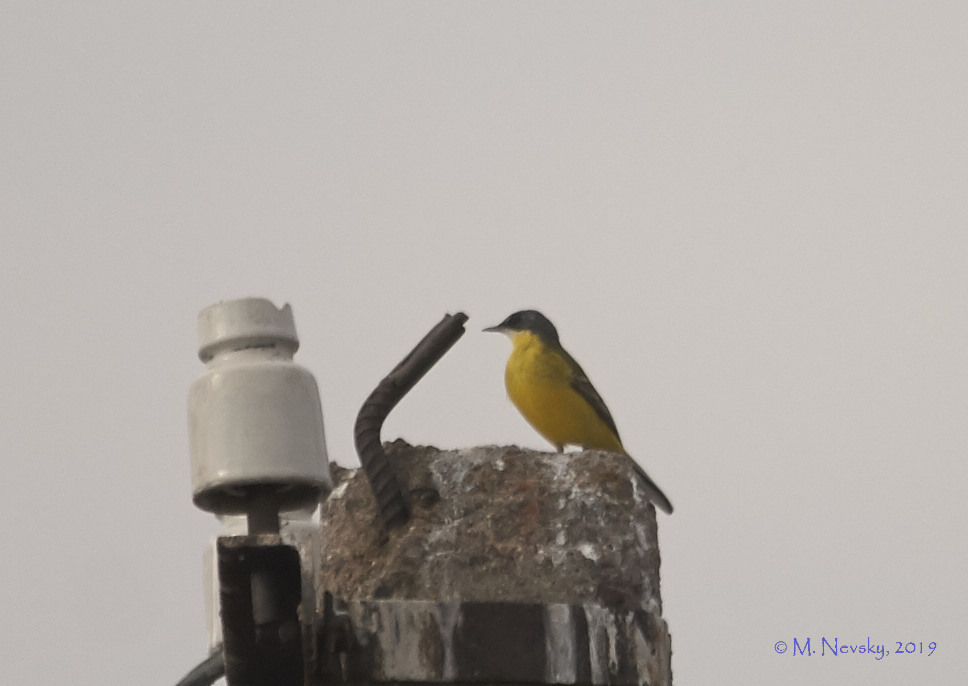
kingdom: Animalia
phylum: Chordata
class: Aves
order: Passeriformes
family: Motacillidae
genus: Motacilla
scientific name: Motacilla flava
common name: Western yellow wagtail
